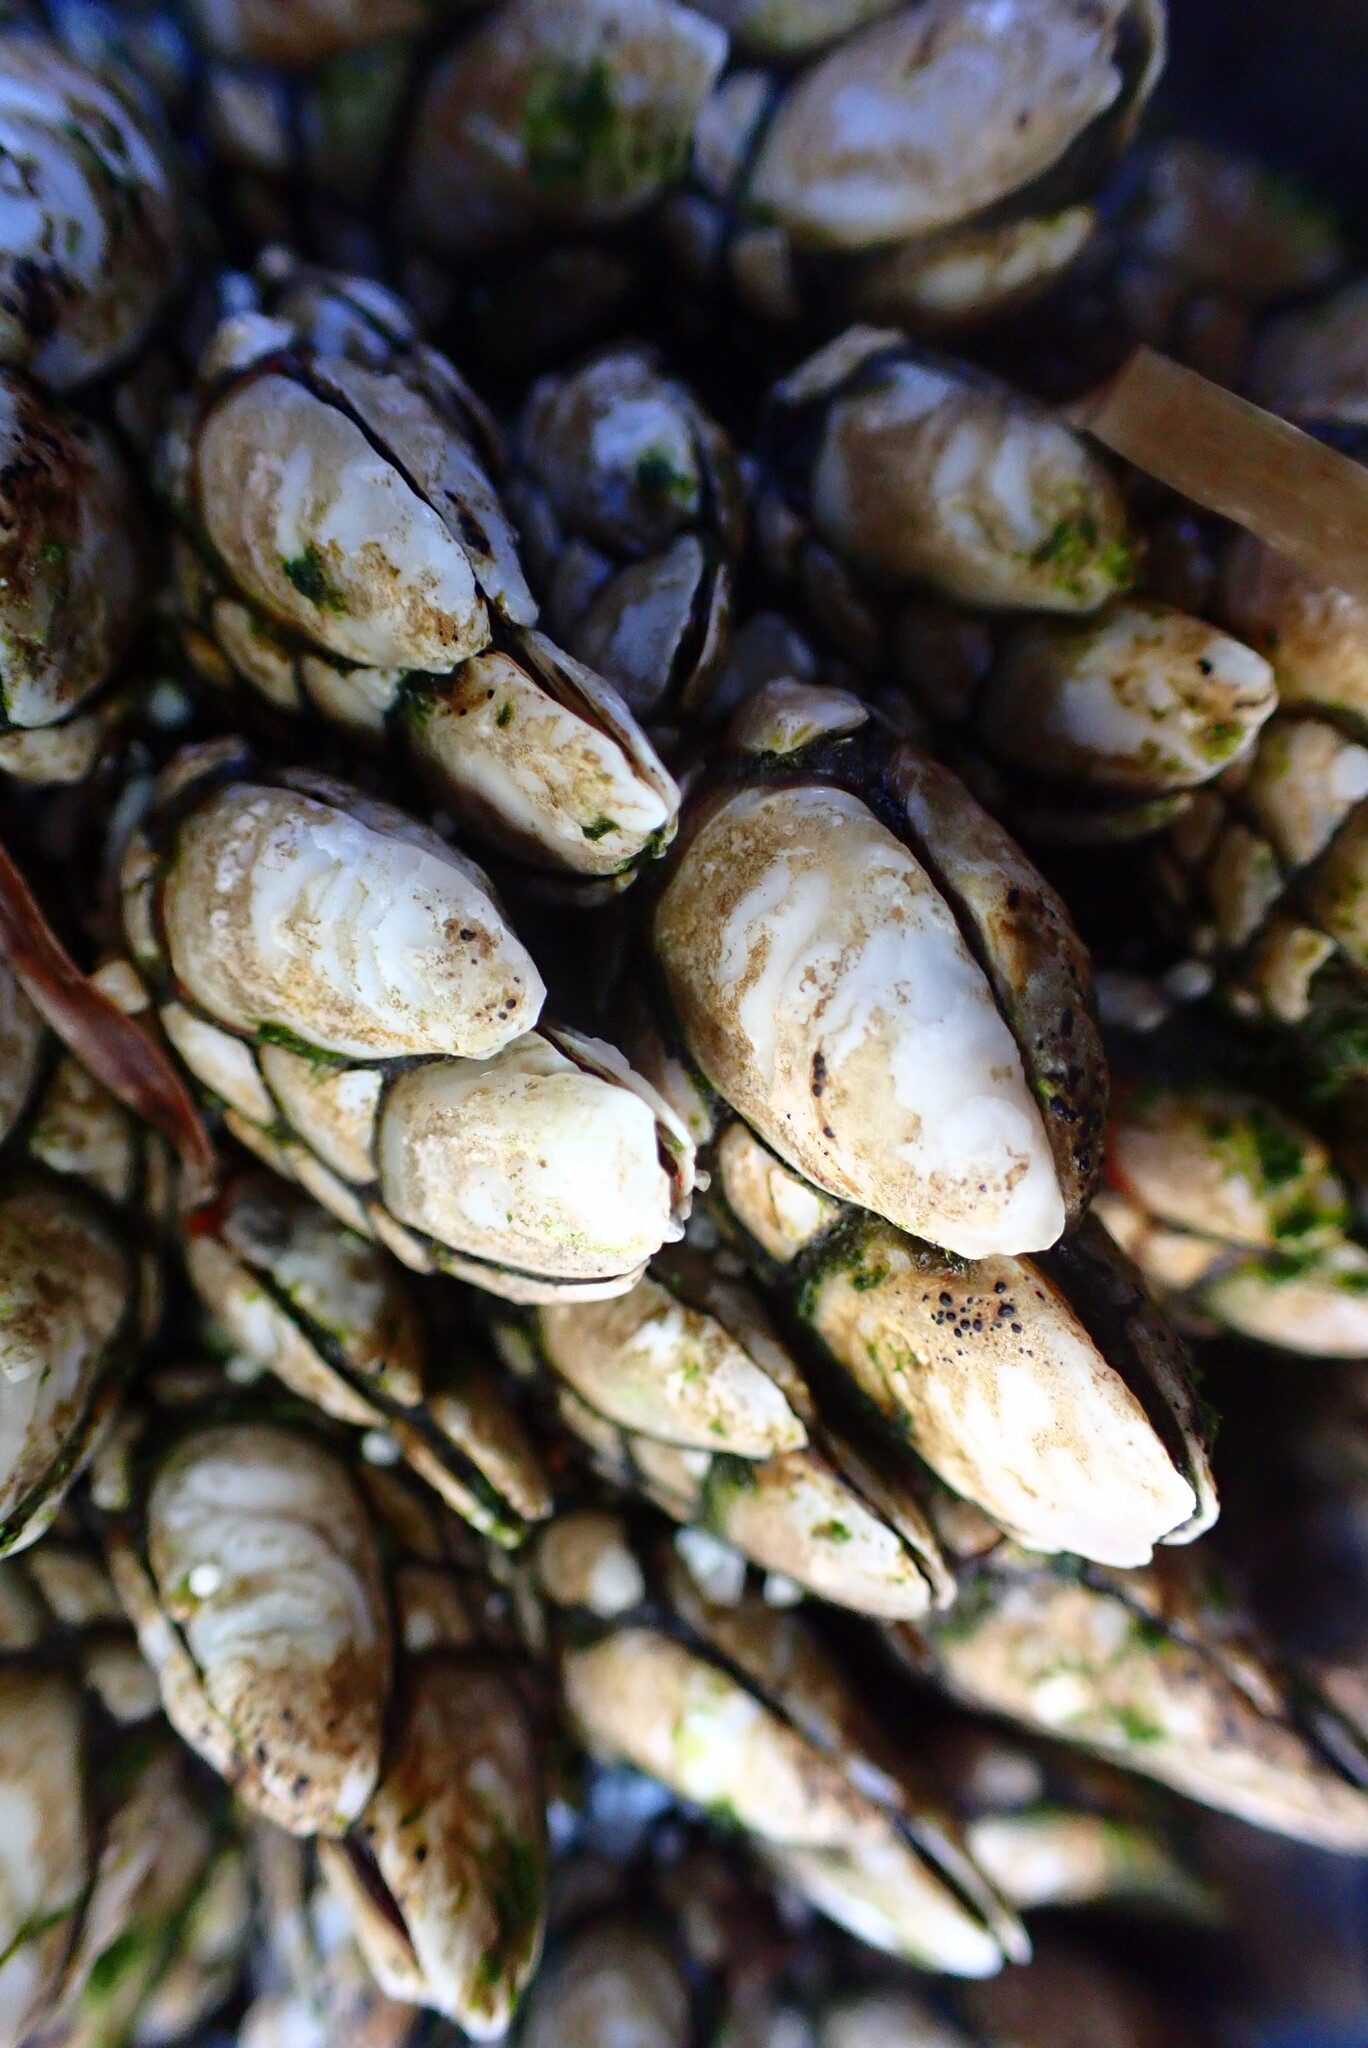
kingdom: Animalia
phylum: Arthropoda
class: Maxillopoda
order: Pedunculata
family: Pollicipedidae
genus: Pollicipes
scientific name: Pollicipes polymerus
